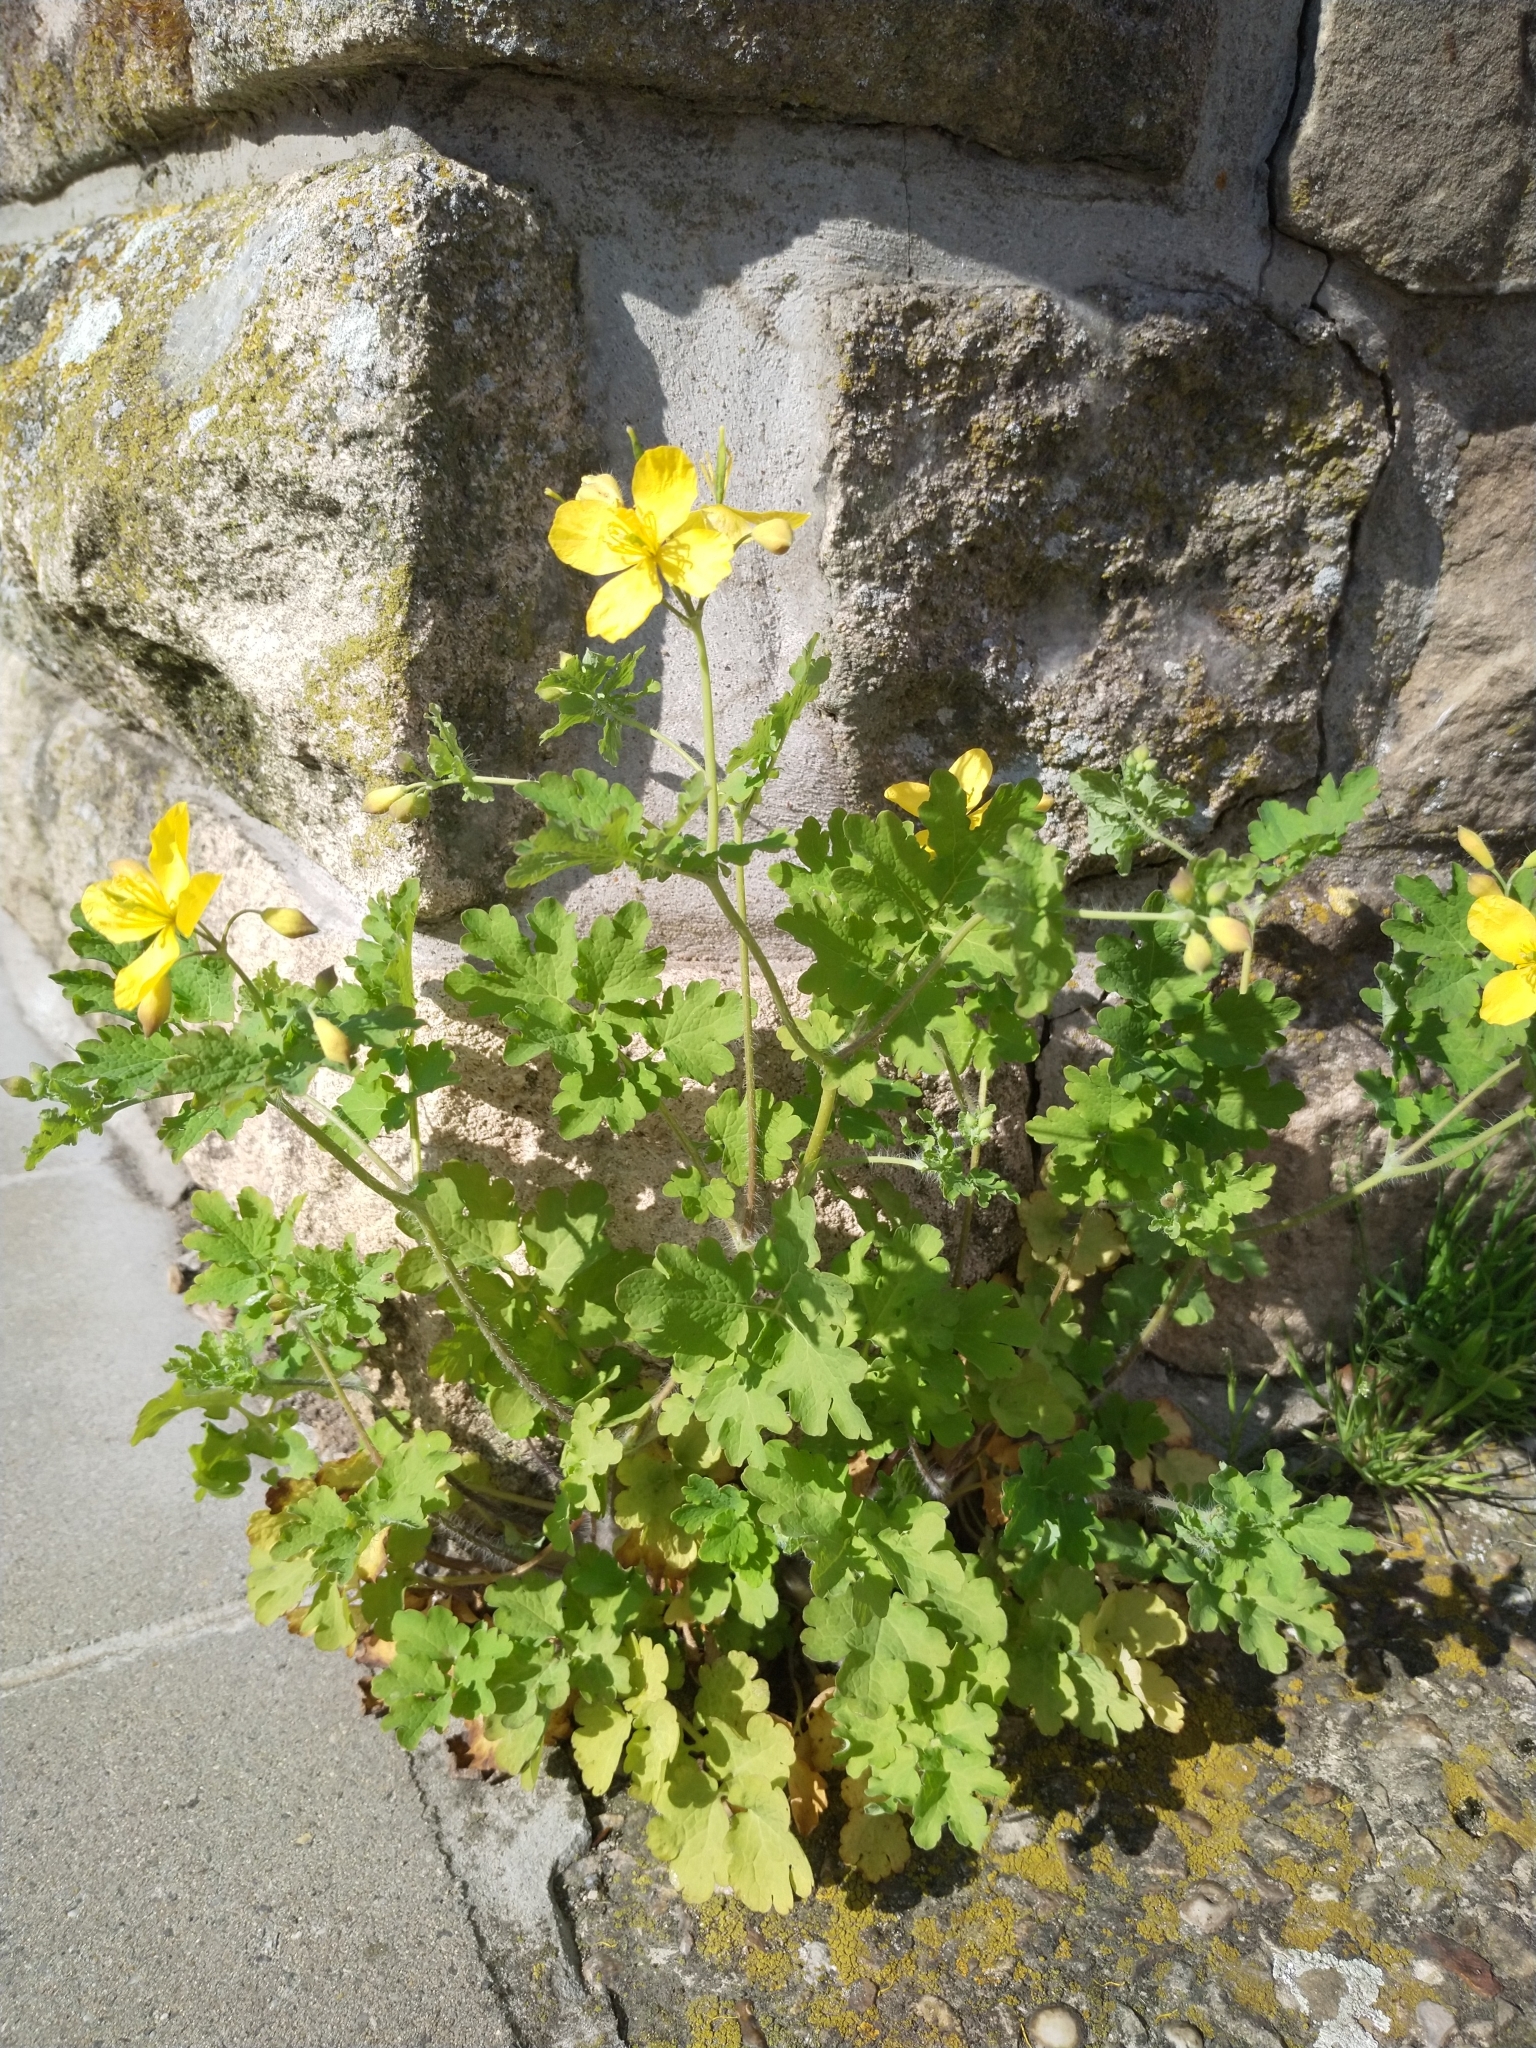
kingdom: Plantae
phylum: Tracheophyta
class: Magnoliopsida
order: Ranunculales
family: Papaveraceae
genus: Chelidonium
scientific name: Chelidonium majus
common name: Greater celandine
